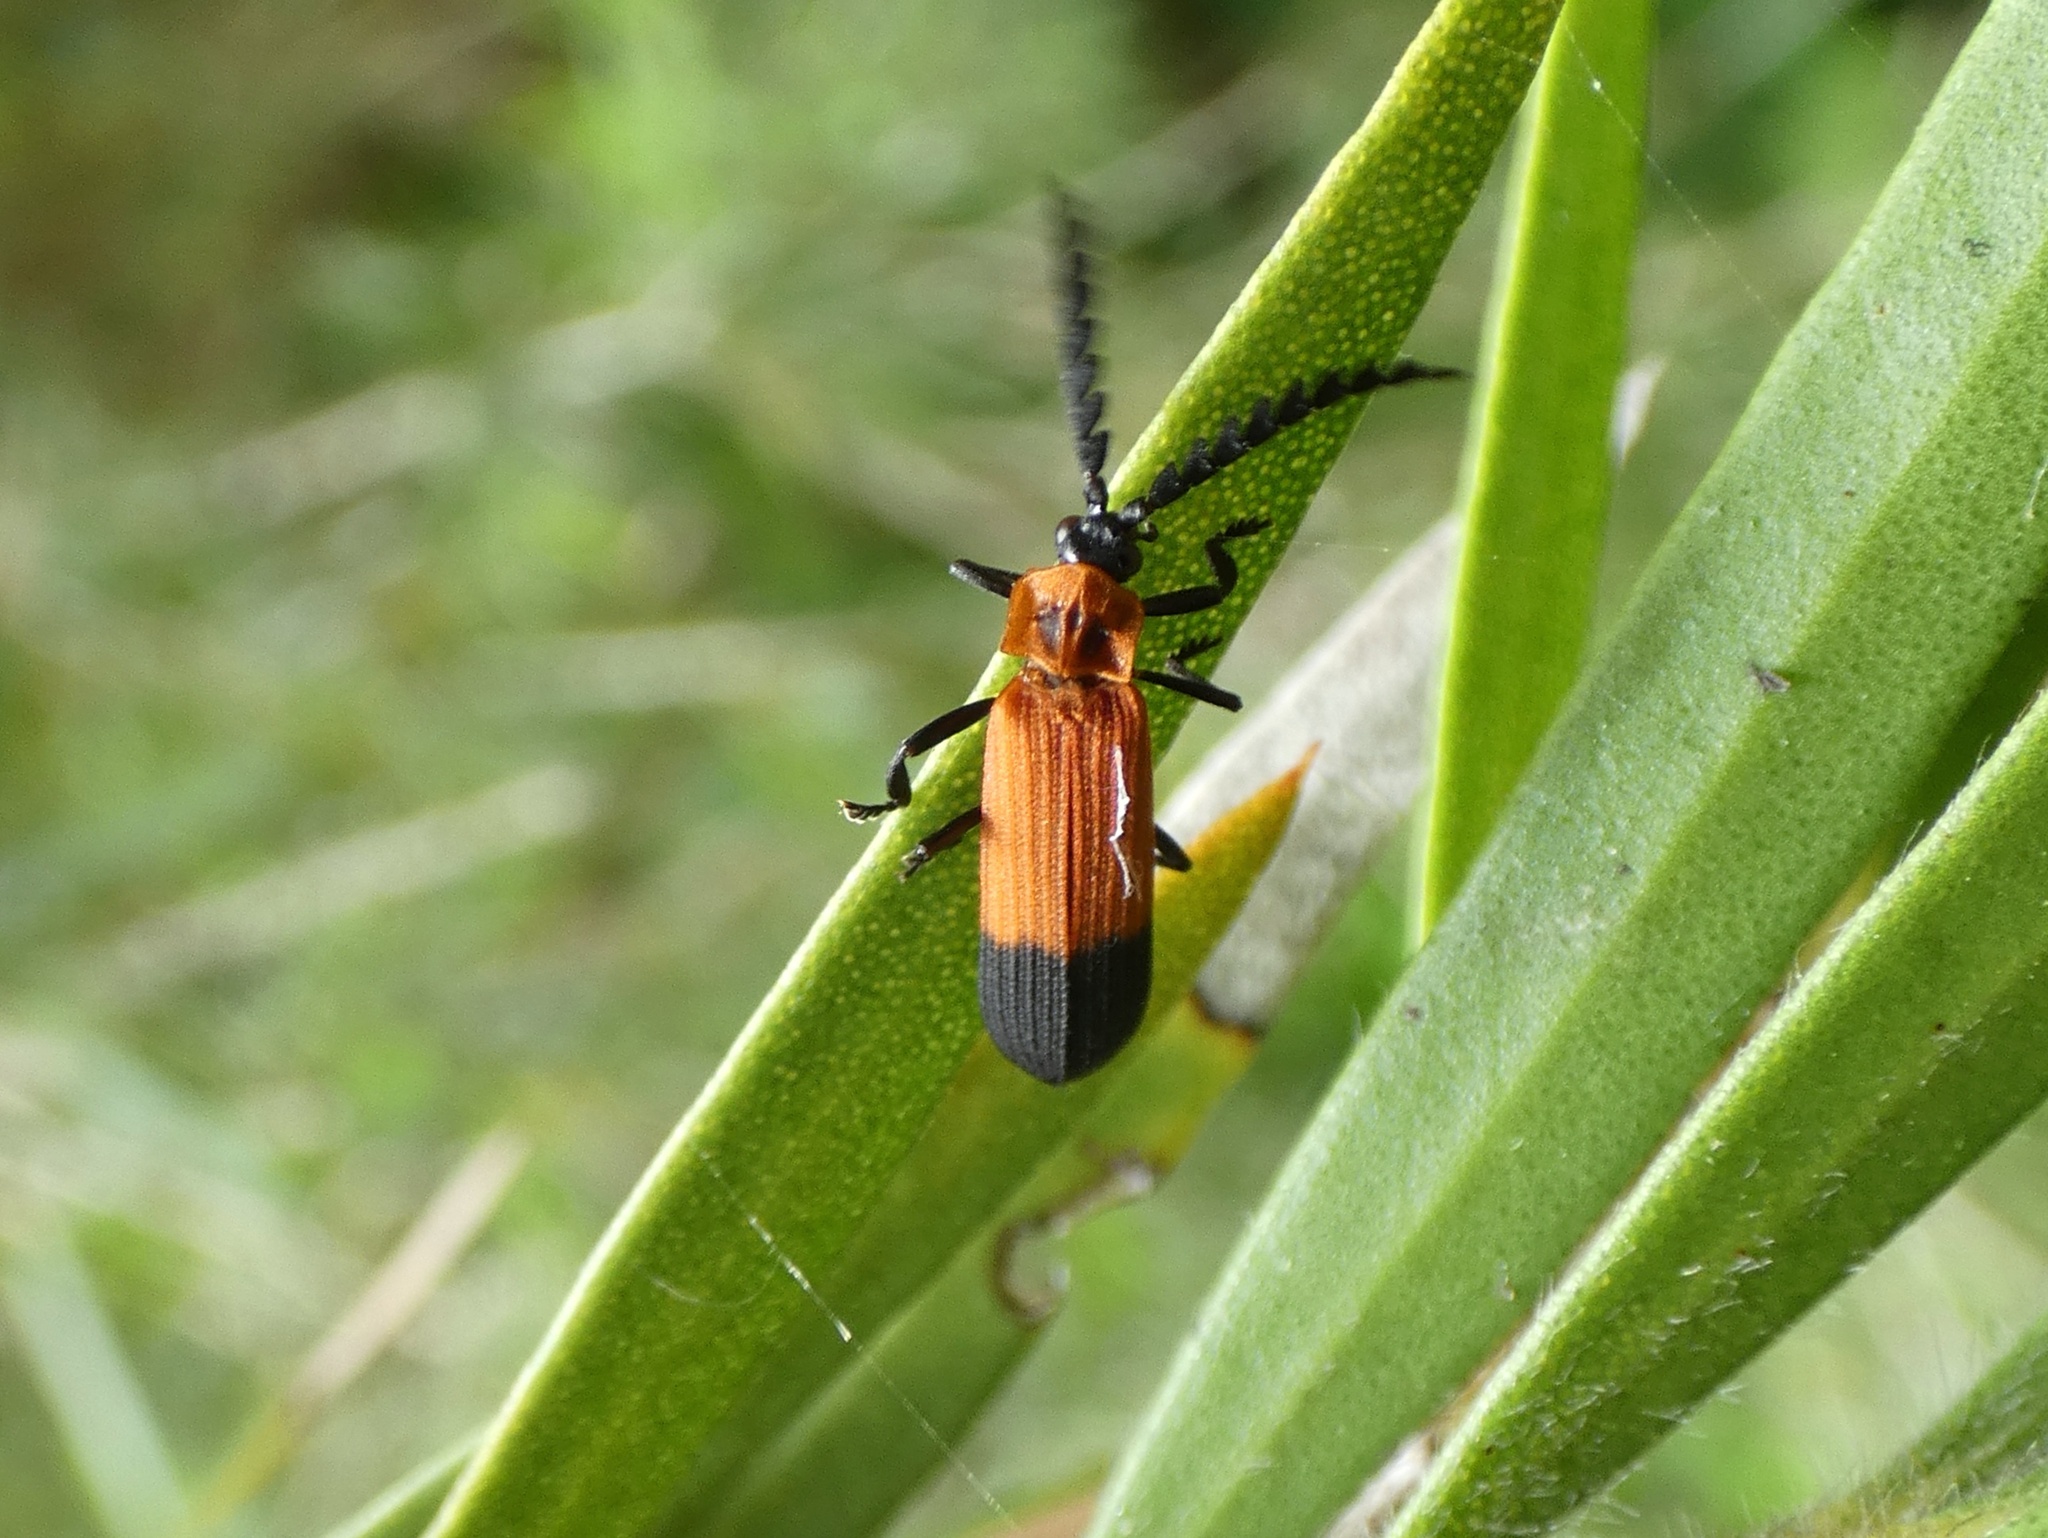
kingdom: Animalia
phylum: Arthropoda
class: Insecta
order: Coleoptera
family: Lycidae
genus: Cladophorus
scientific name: Cladophorus
